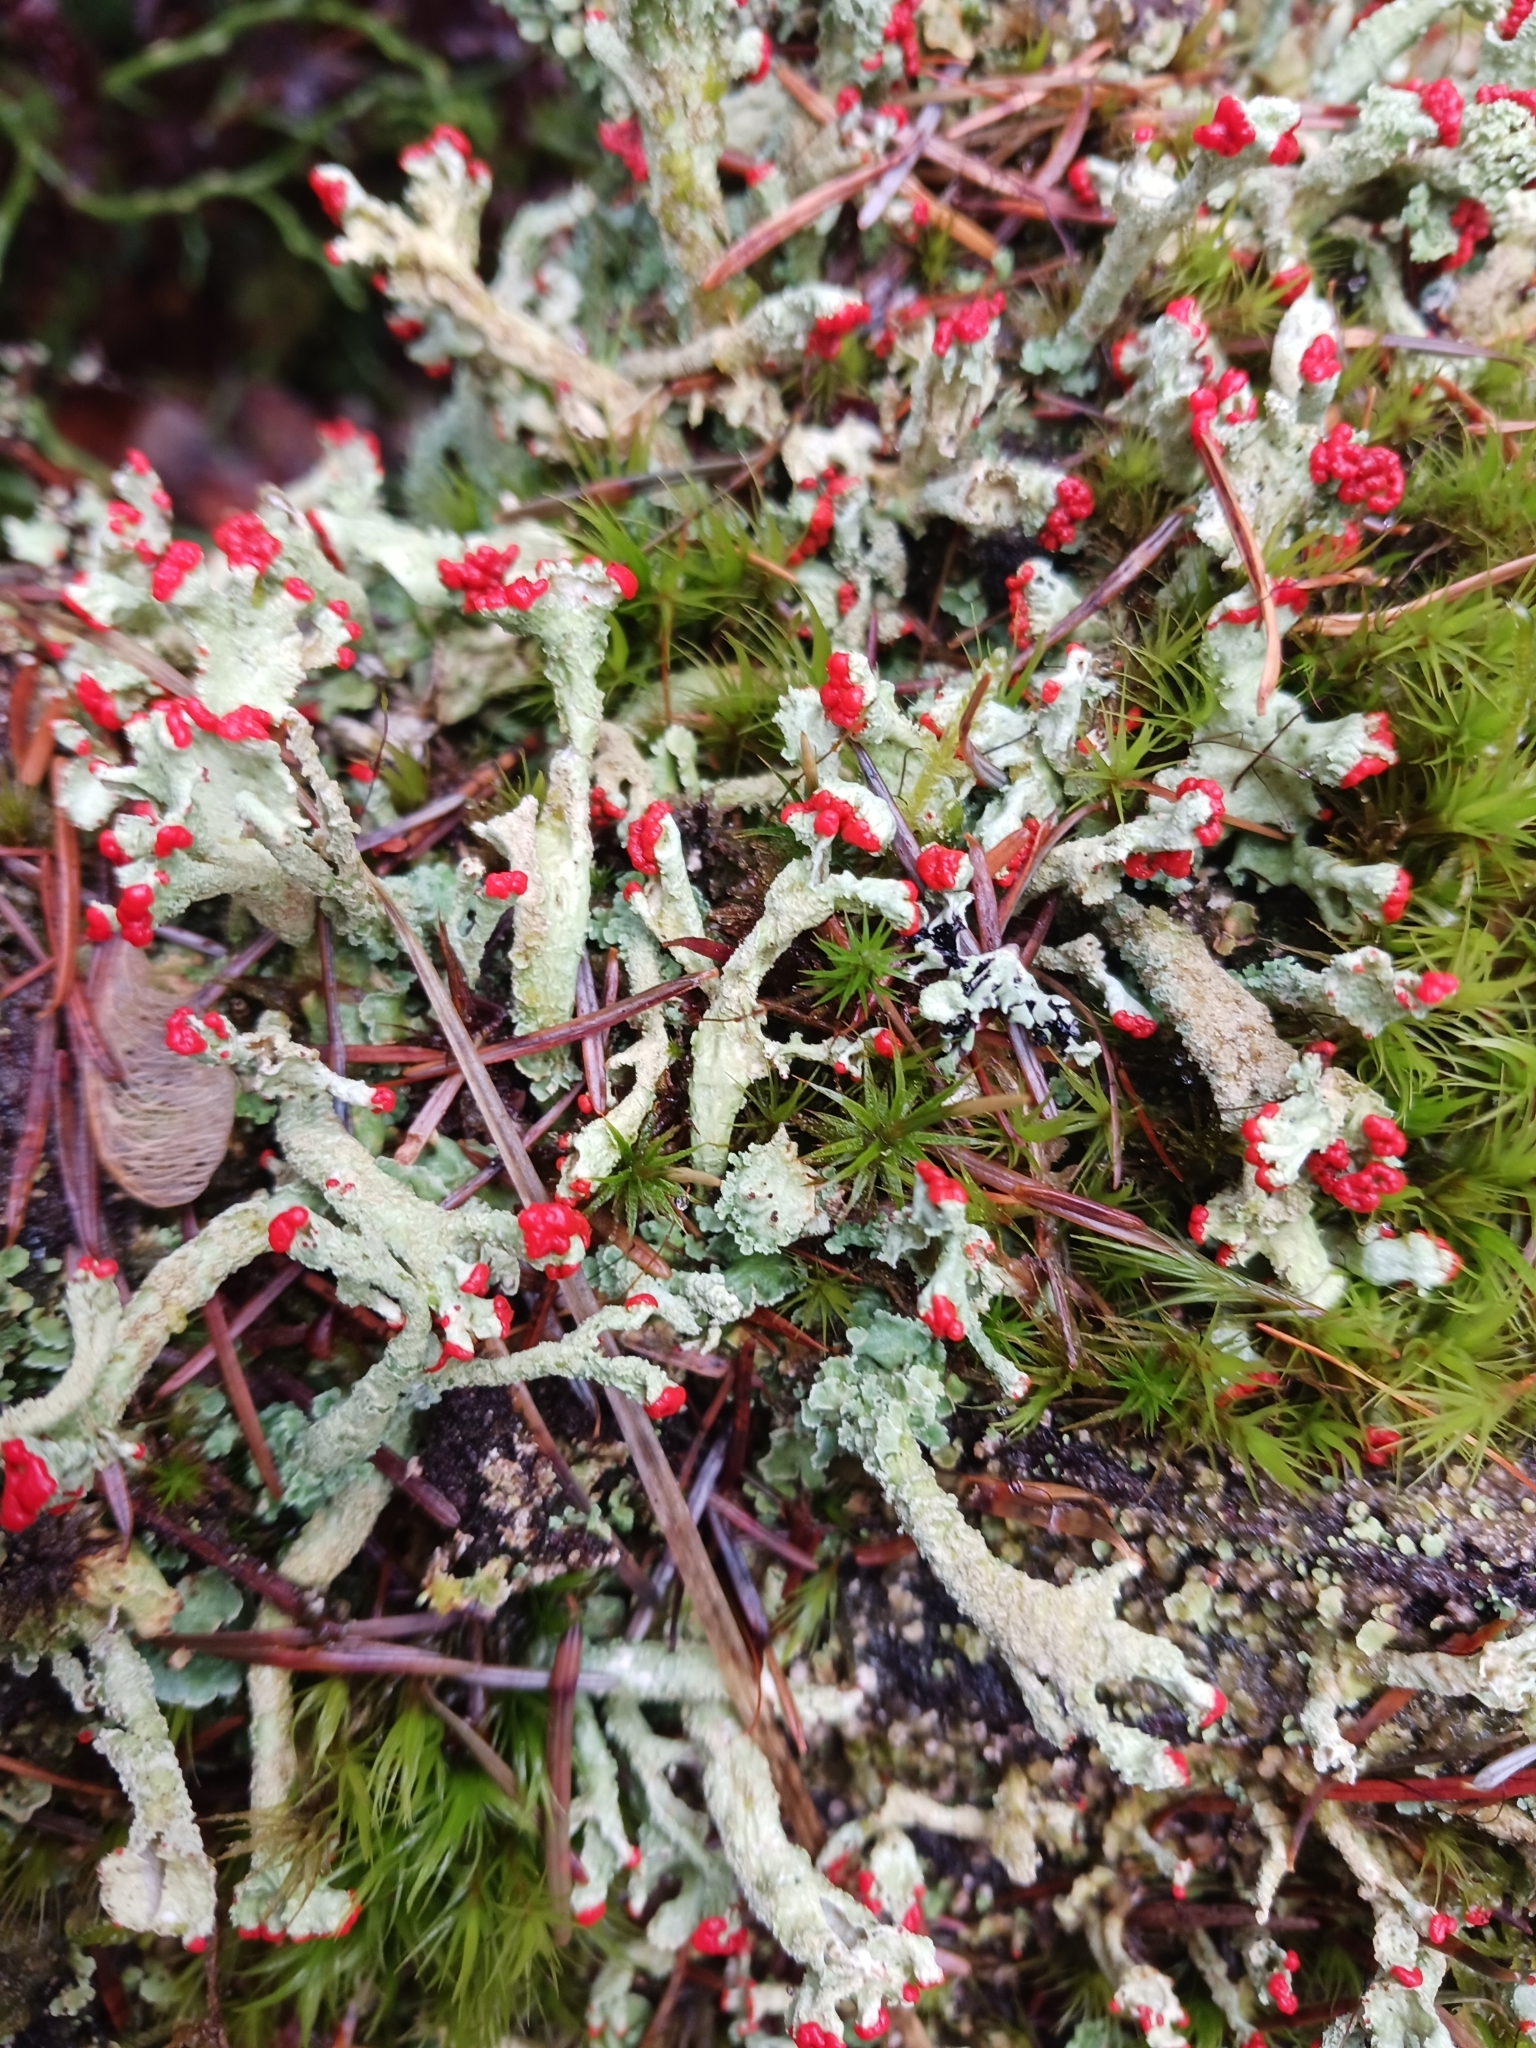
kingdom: Fungi
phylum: Ascomycota
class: Lecanoromycetes
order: Lecanorales
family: Cladoniaceae
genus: Cladonia
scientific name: Cladonia
